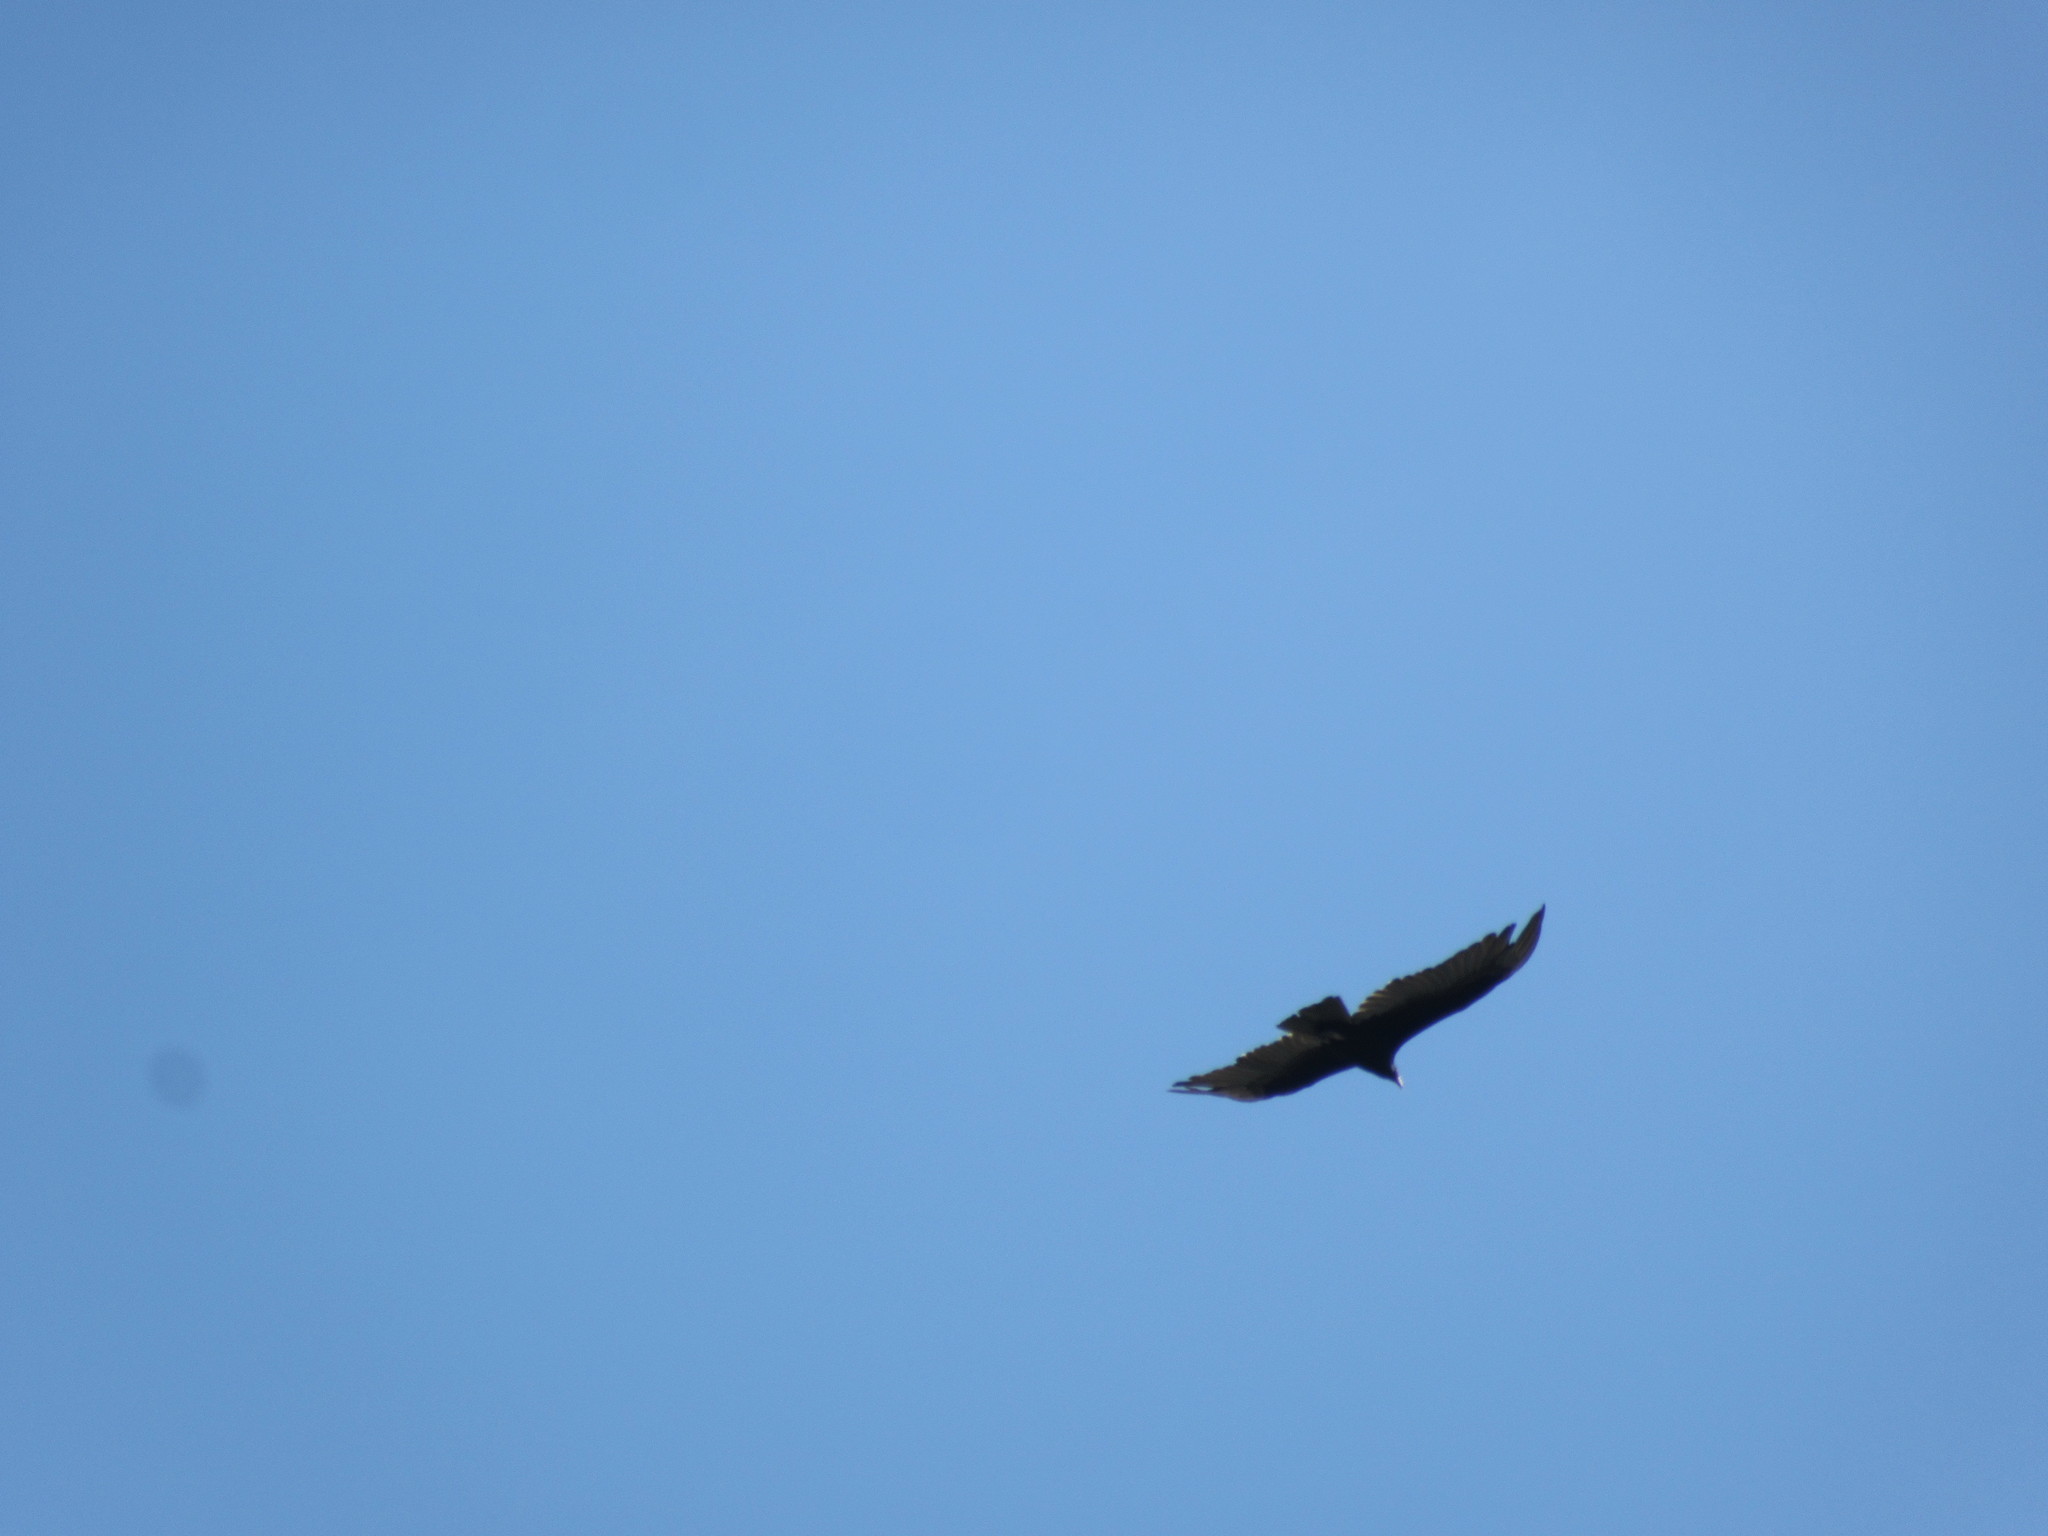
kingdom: Animalia
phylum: Chordata
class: Aves
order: Accipitriformes
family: Cathartidae
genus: Cathartes
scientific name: Cathartes aura
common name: Turkey vulture
